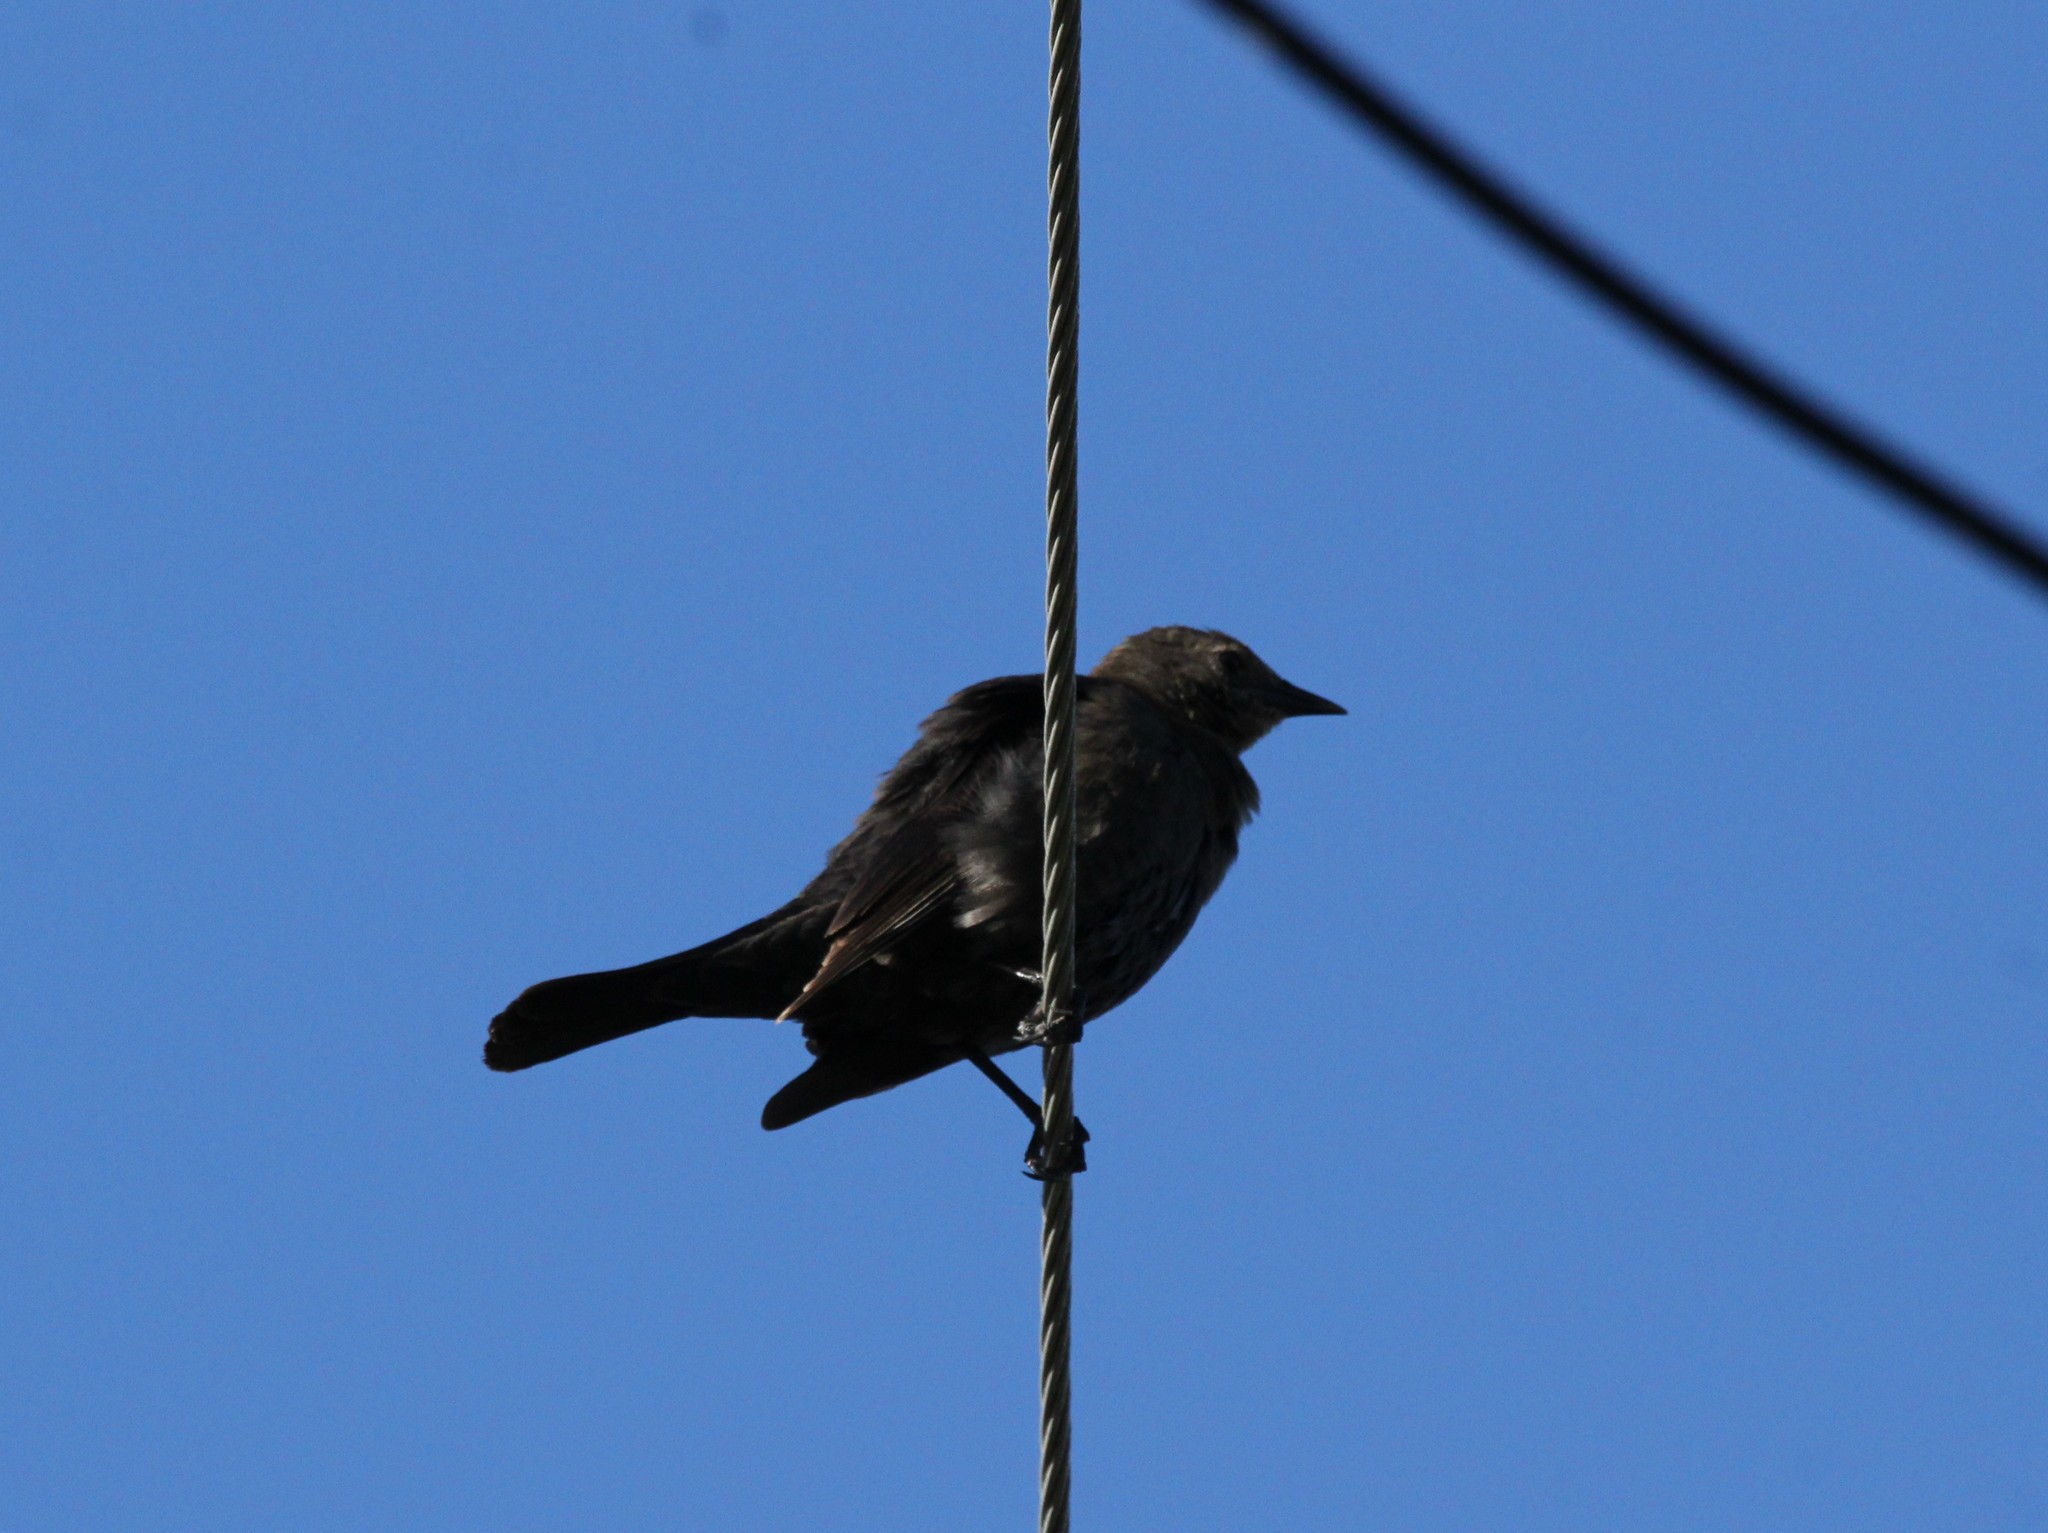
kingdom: Animalia
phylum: Chordata
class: Aves
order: Passeriformes
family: Icteridae
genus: Molothrus
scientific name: Molothrus ater
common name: Brown-headed cowbird
